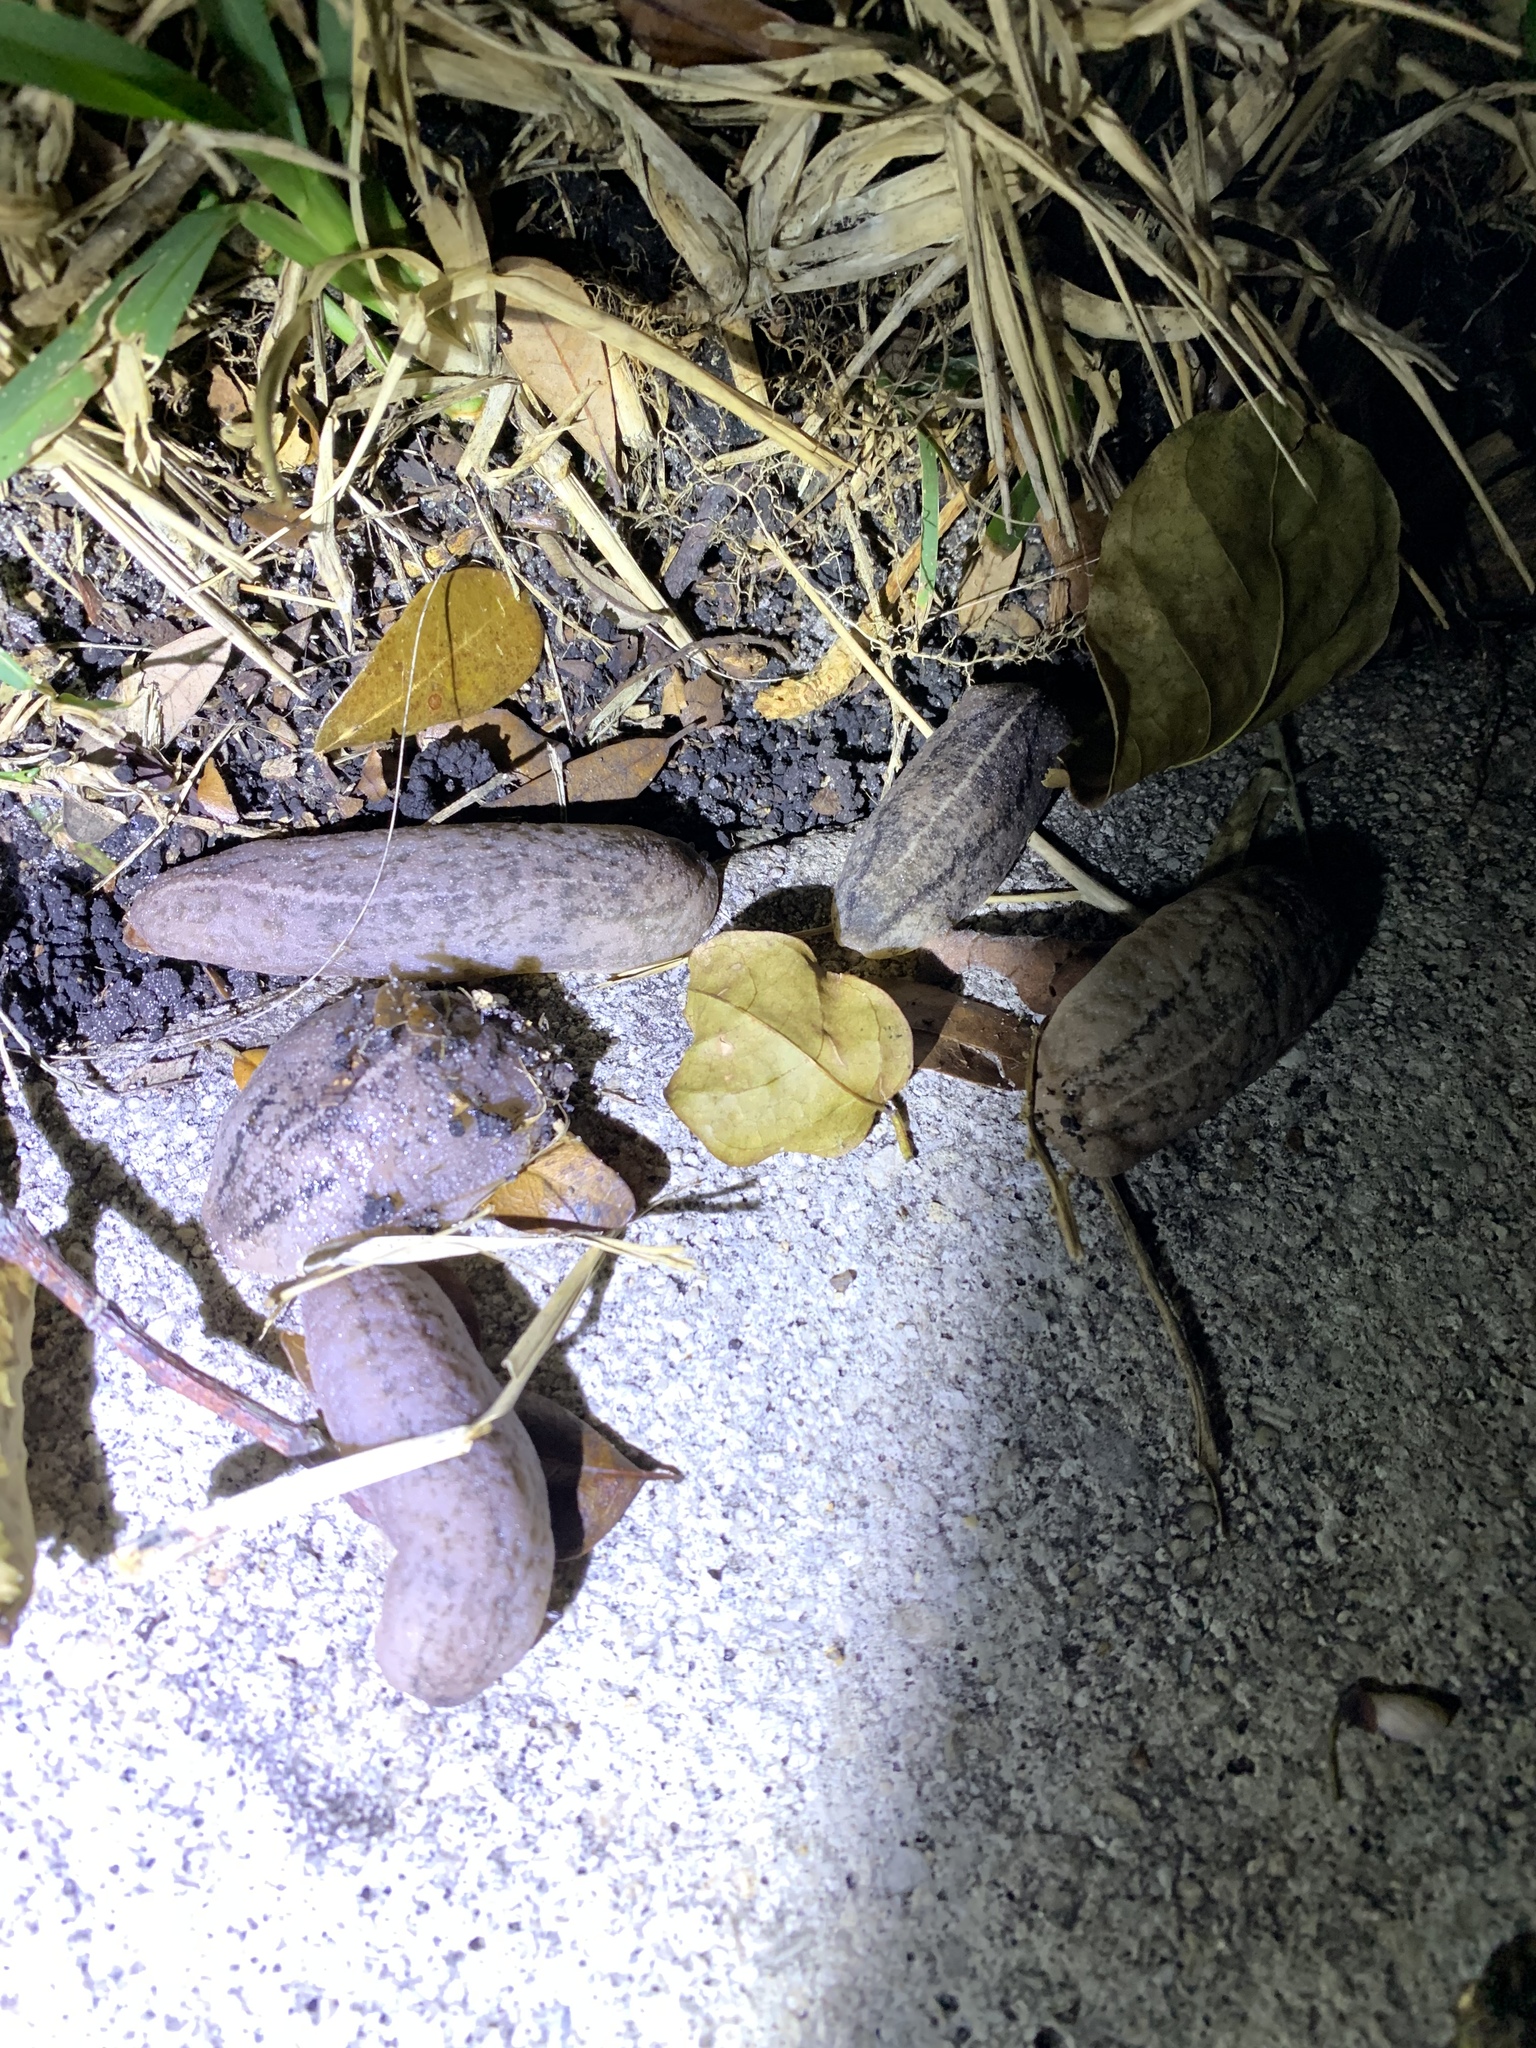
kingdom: Animalia
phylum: Mollusca
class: Gastropoda
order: Systellommatophora
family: Veronicellidae
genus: Leidyula
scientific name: Leidyula floridana
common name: Florida leatherleaf
